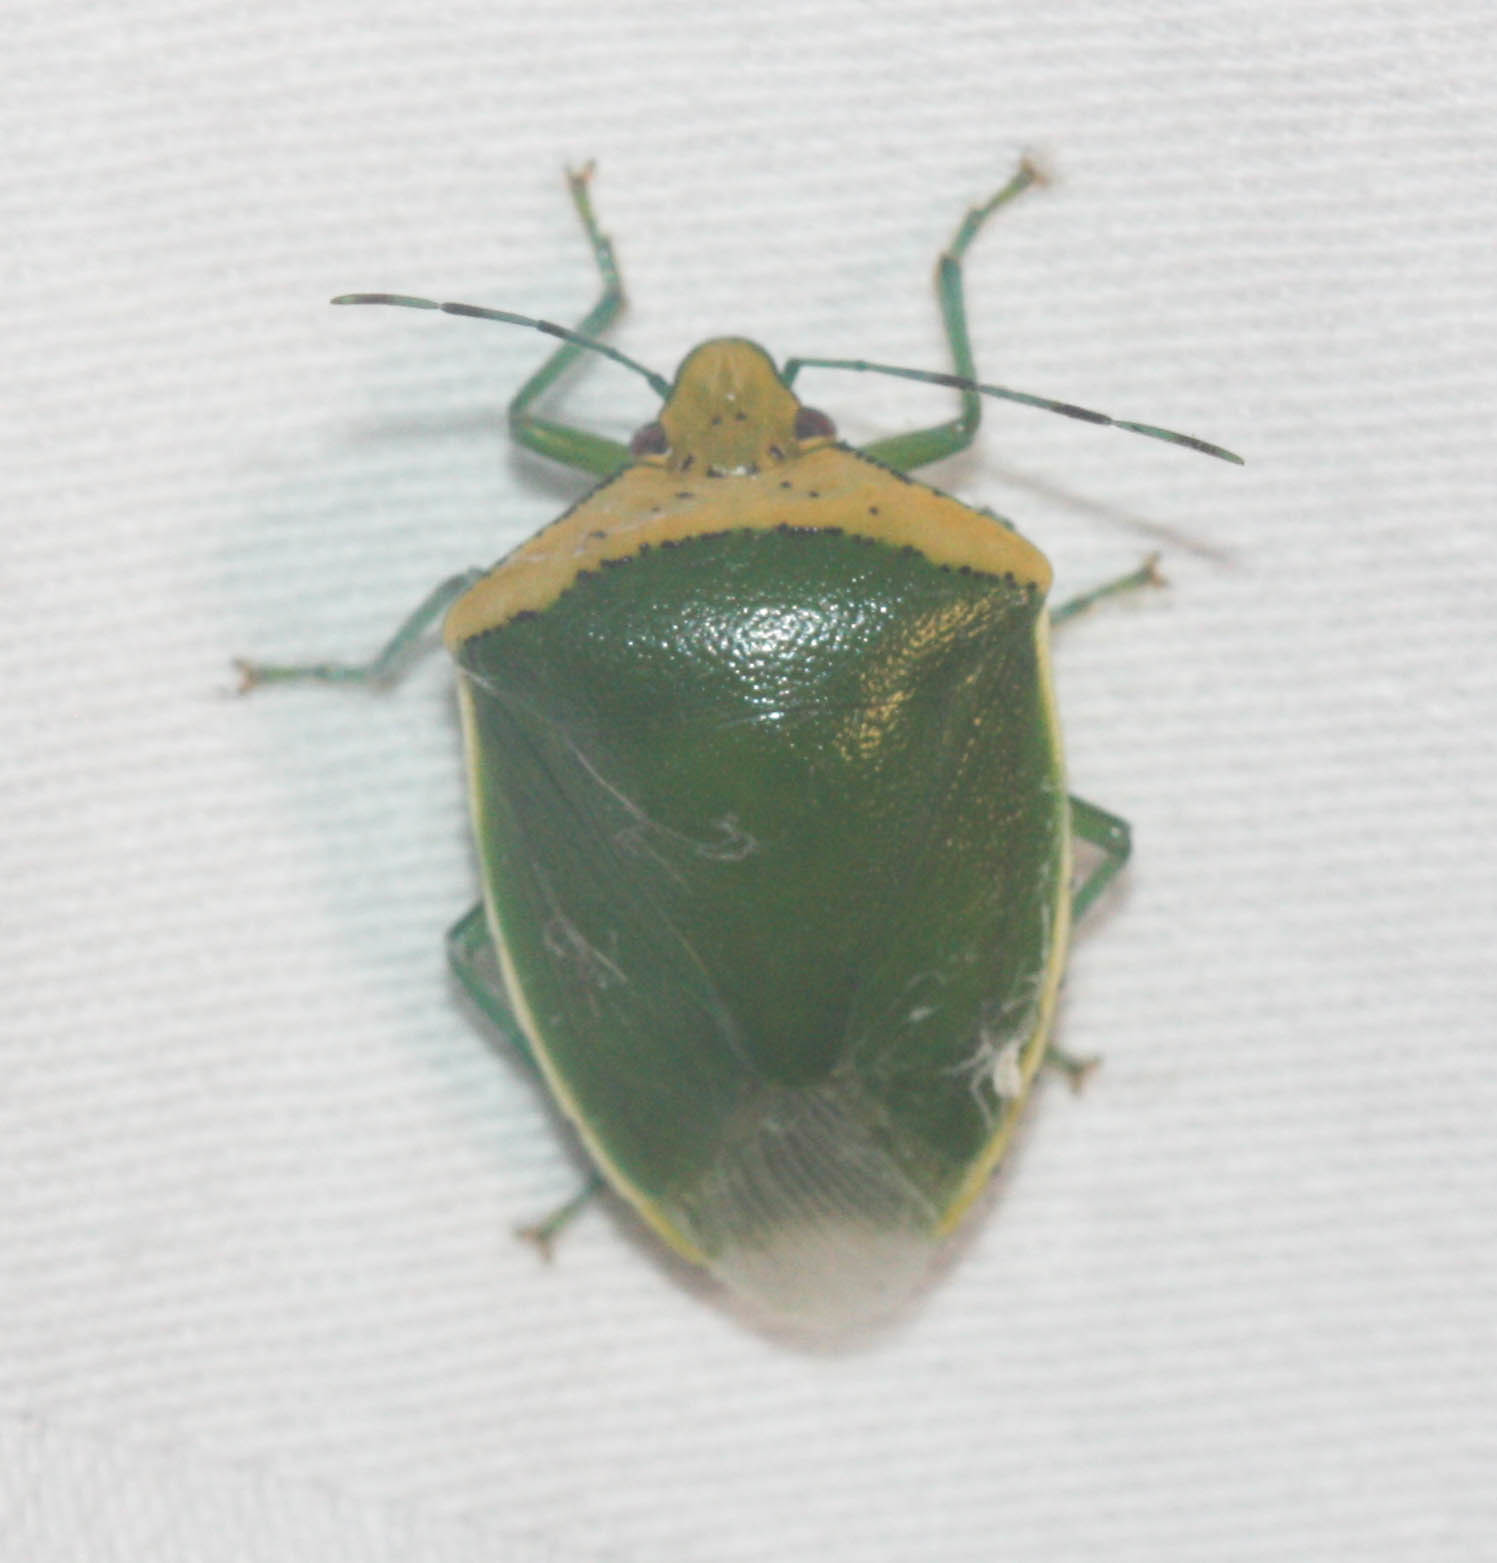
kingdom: Animalia
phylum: Arthropoda
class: Insecta
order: Hemiptera
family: Pentatomidae
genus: Glaucias
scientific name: Glaucias crassus
